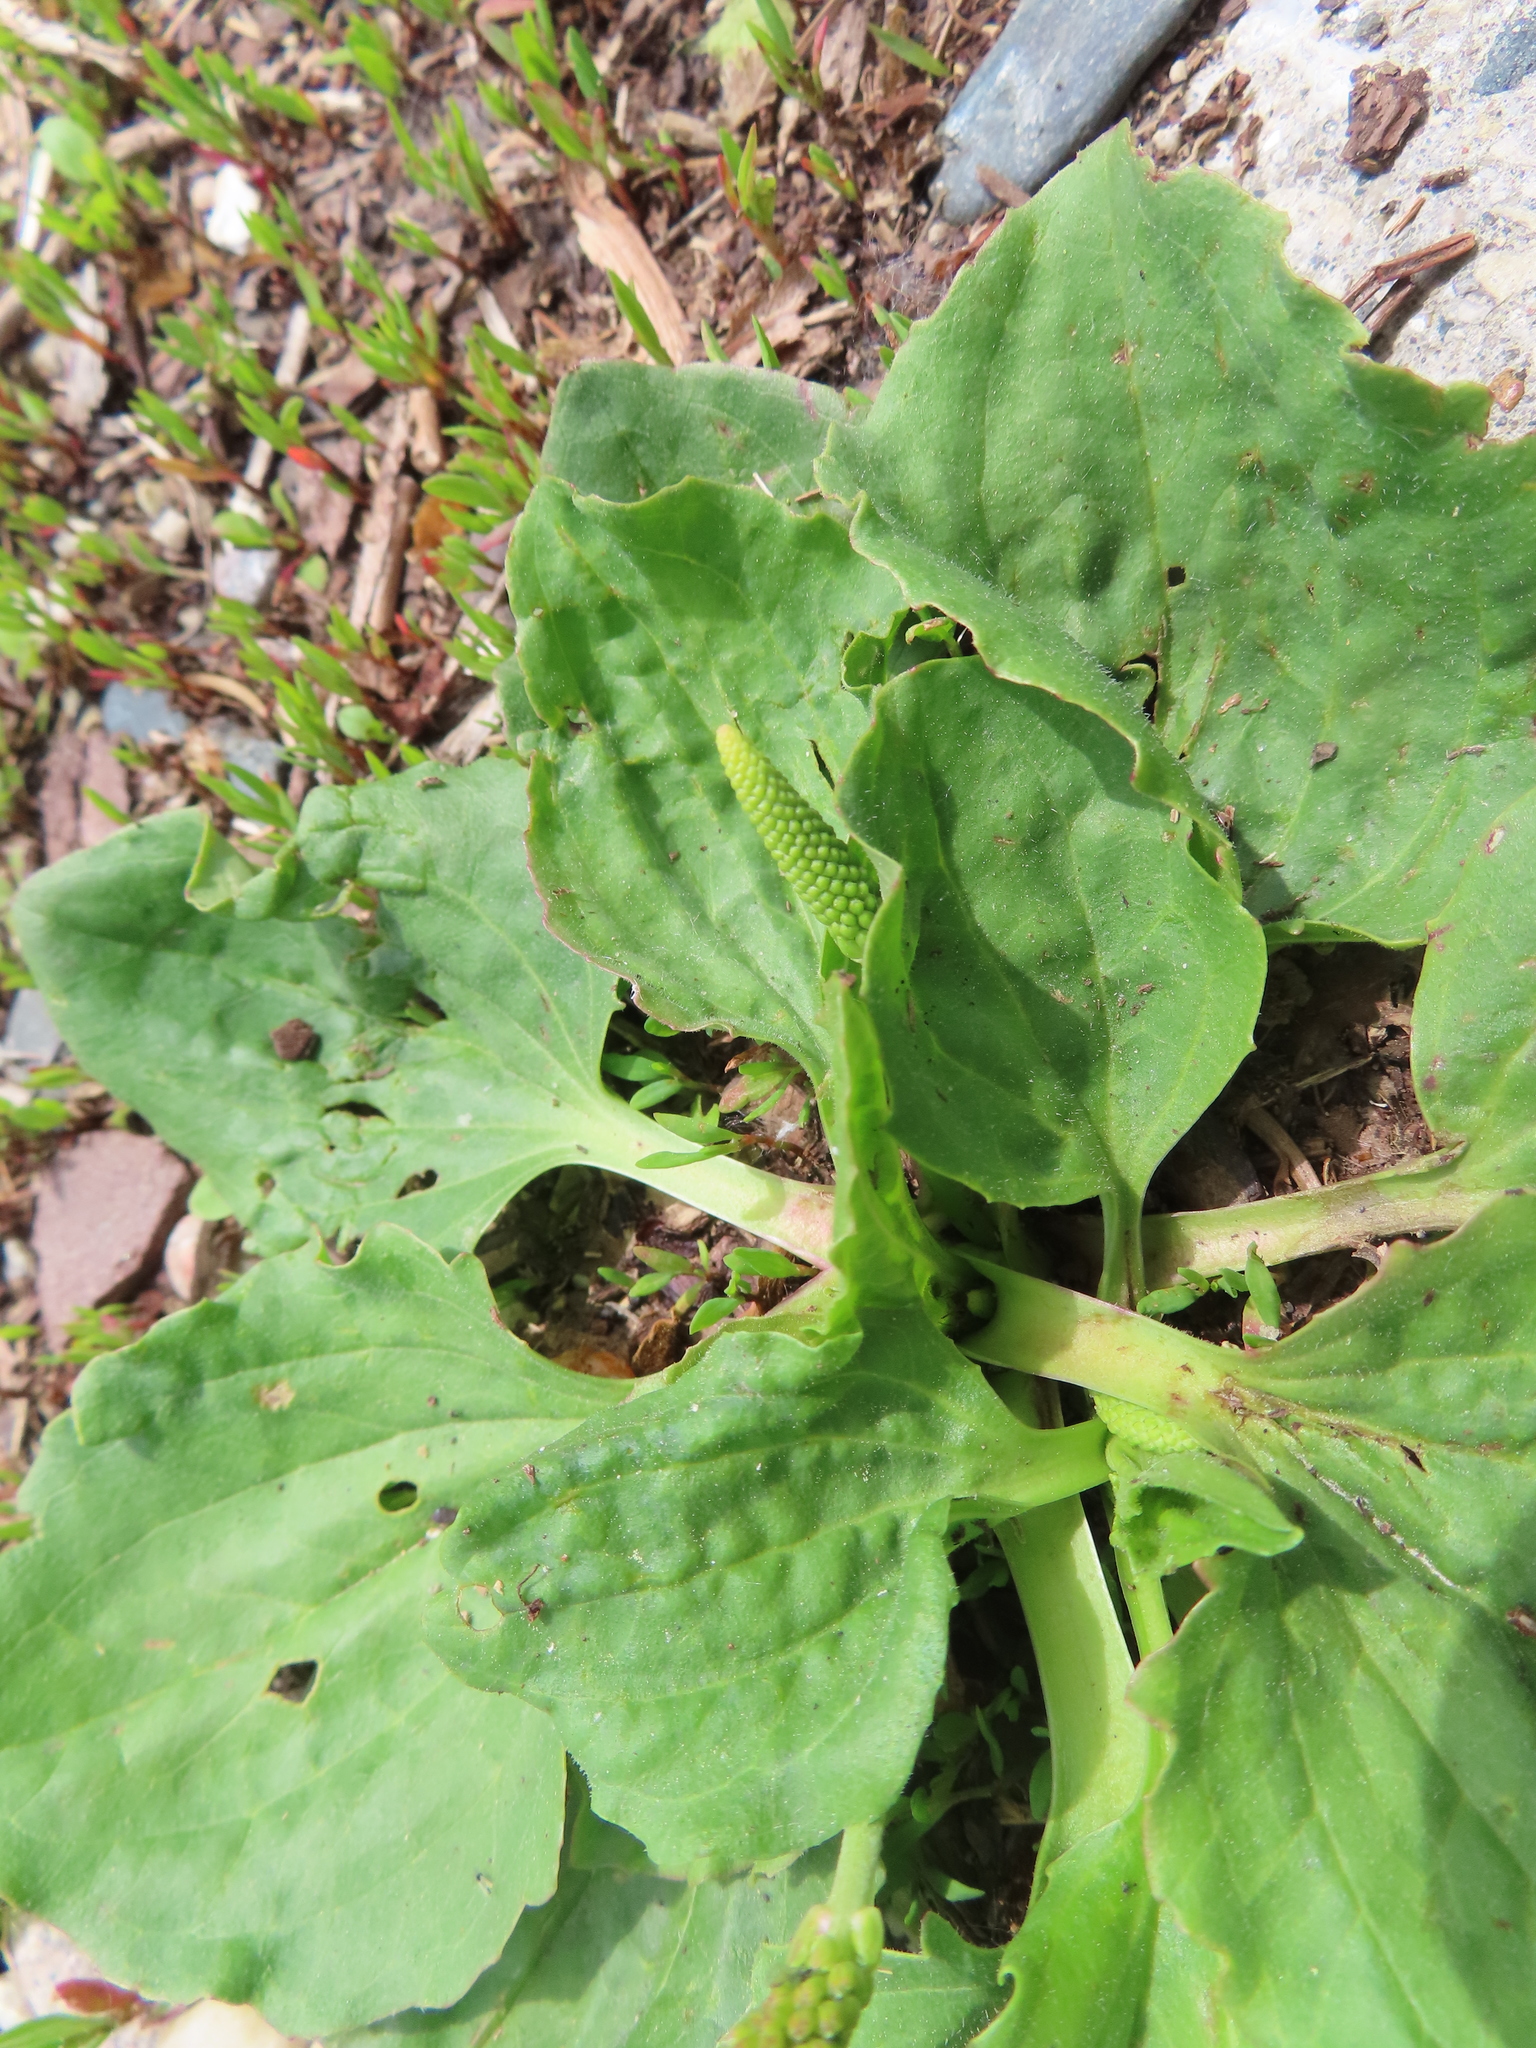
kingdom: Plantae
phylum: Tracheophyta
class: Magnoliopsida
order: Lamiales
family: Plantaginaceae
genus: Plantago
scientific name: Plantago major
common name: Common plantain
